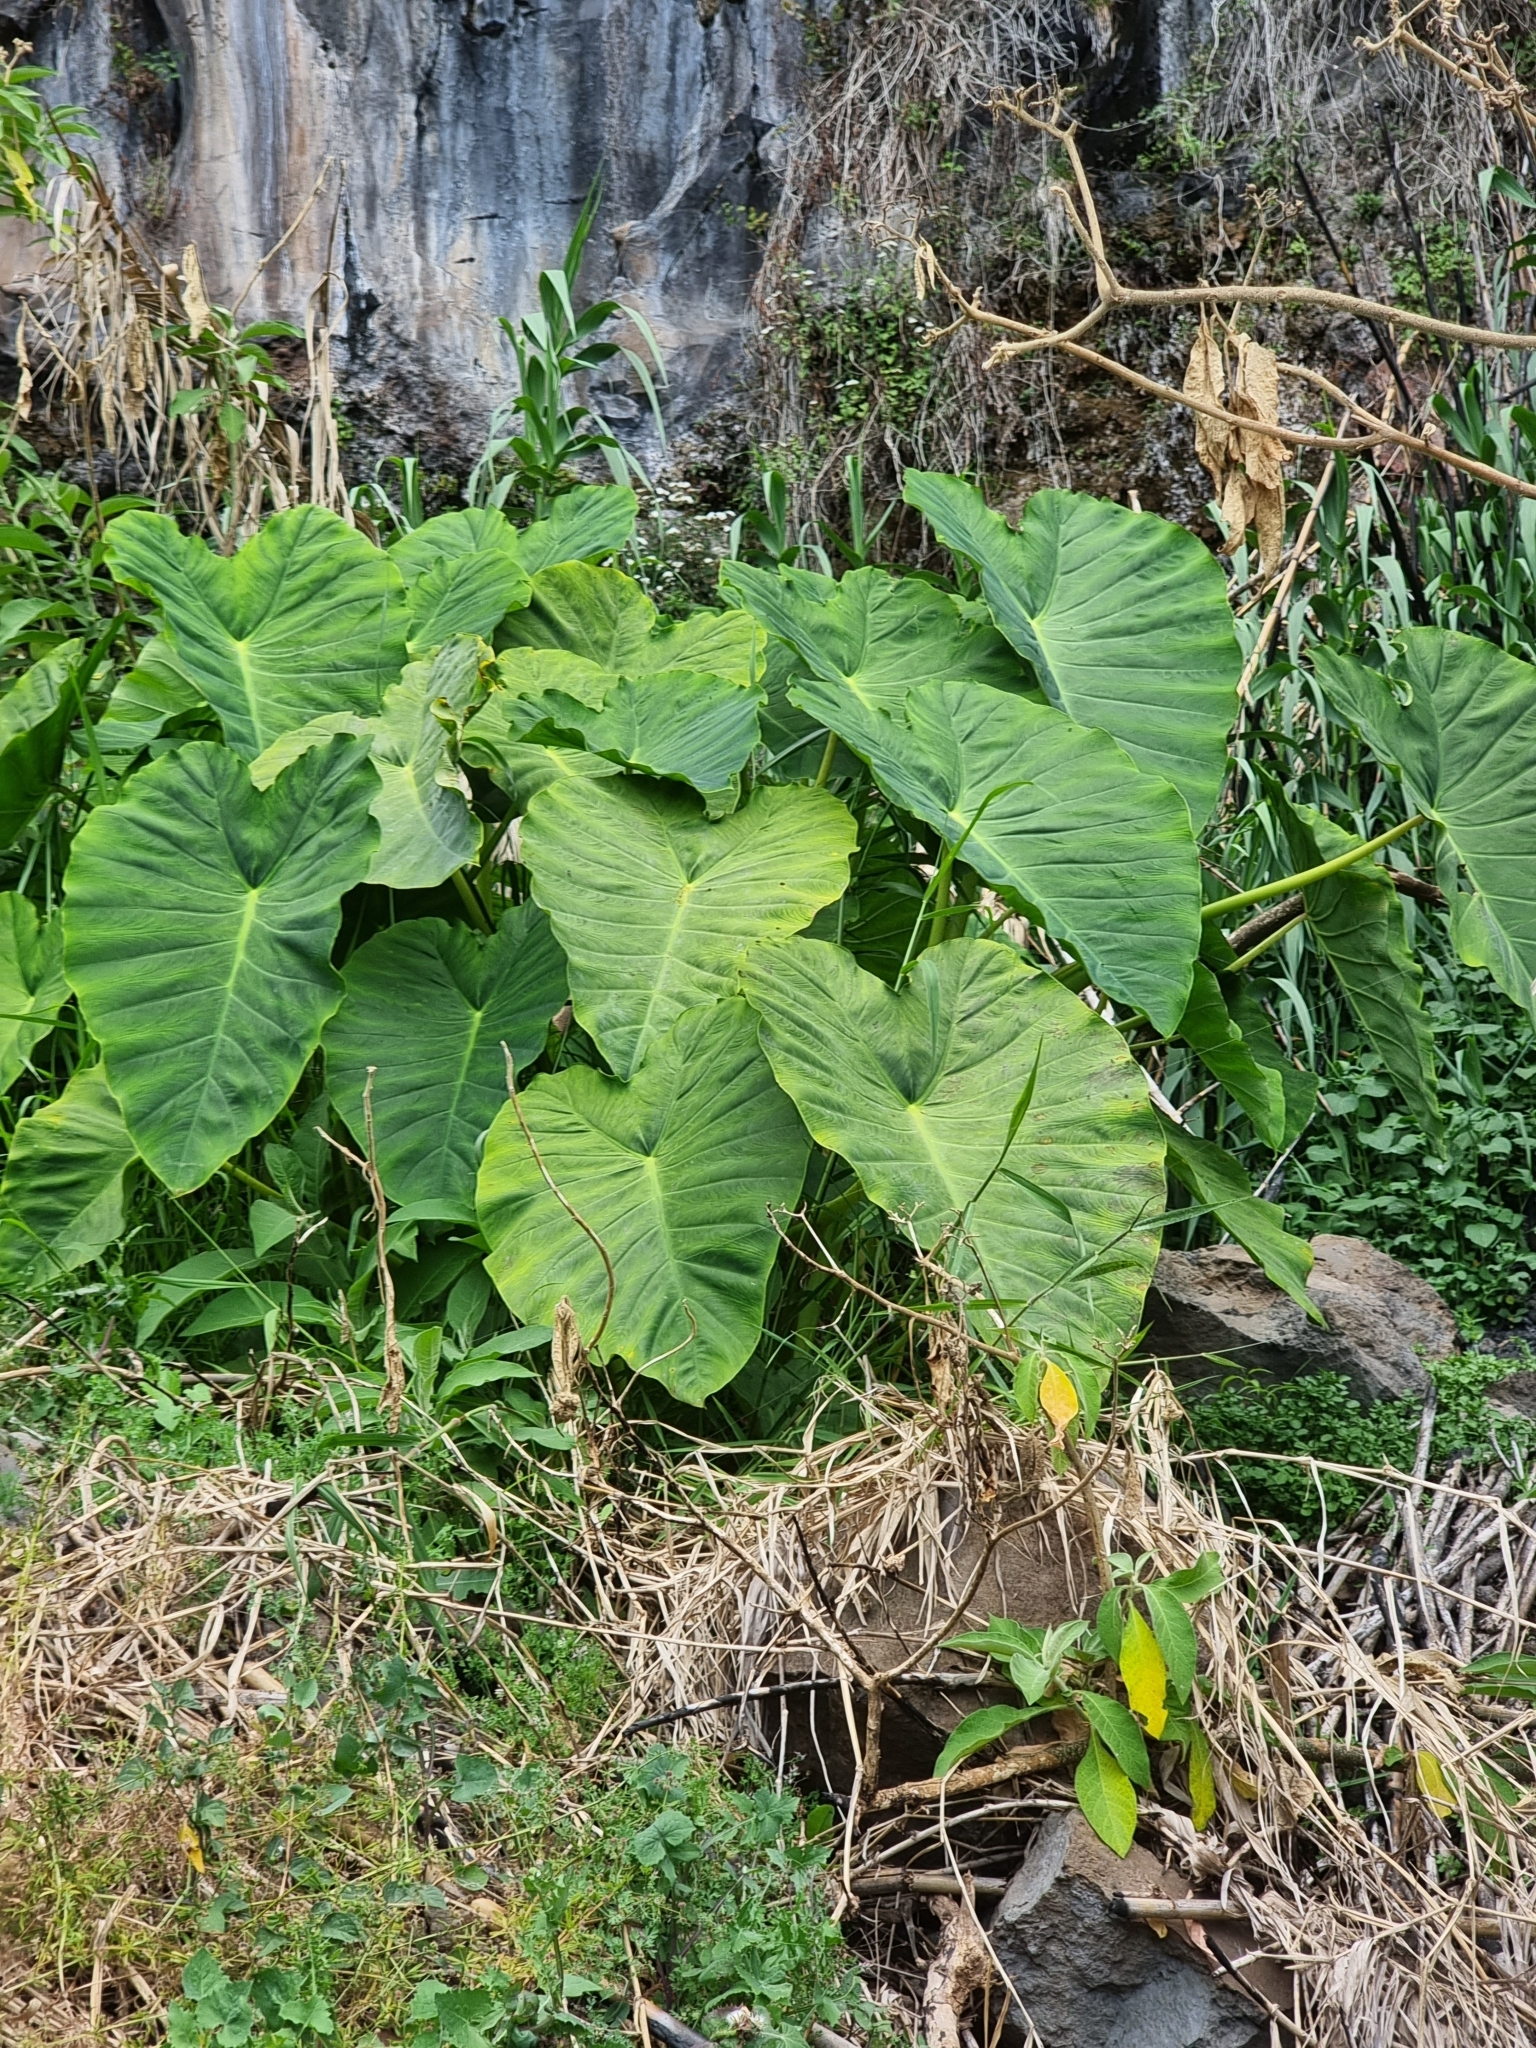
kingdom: Plantae
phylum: Tracheophyta
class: Liliopsida
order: Alismatales
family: Araceae
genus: Colocasia
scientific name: Colocasia esculenta
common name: Taro
